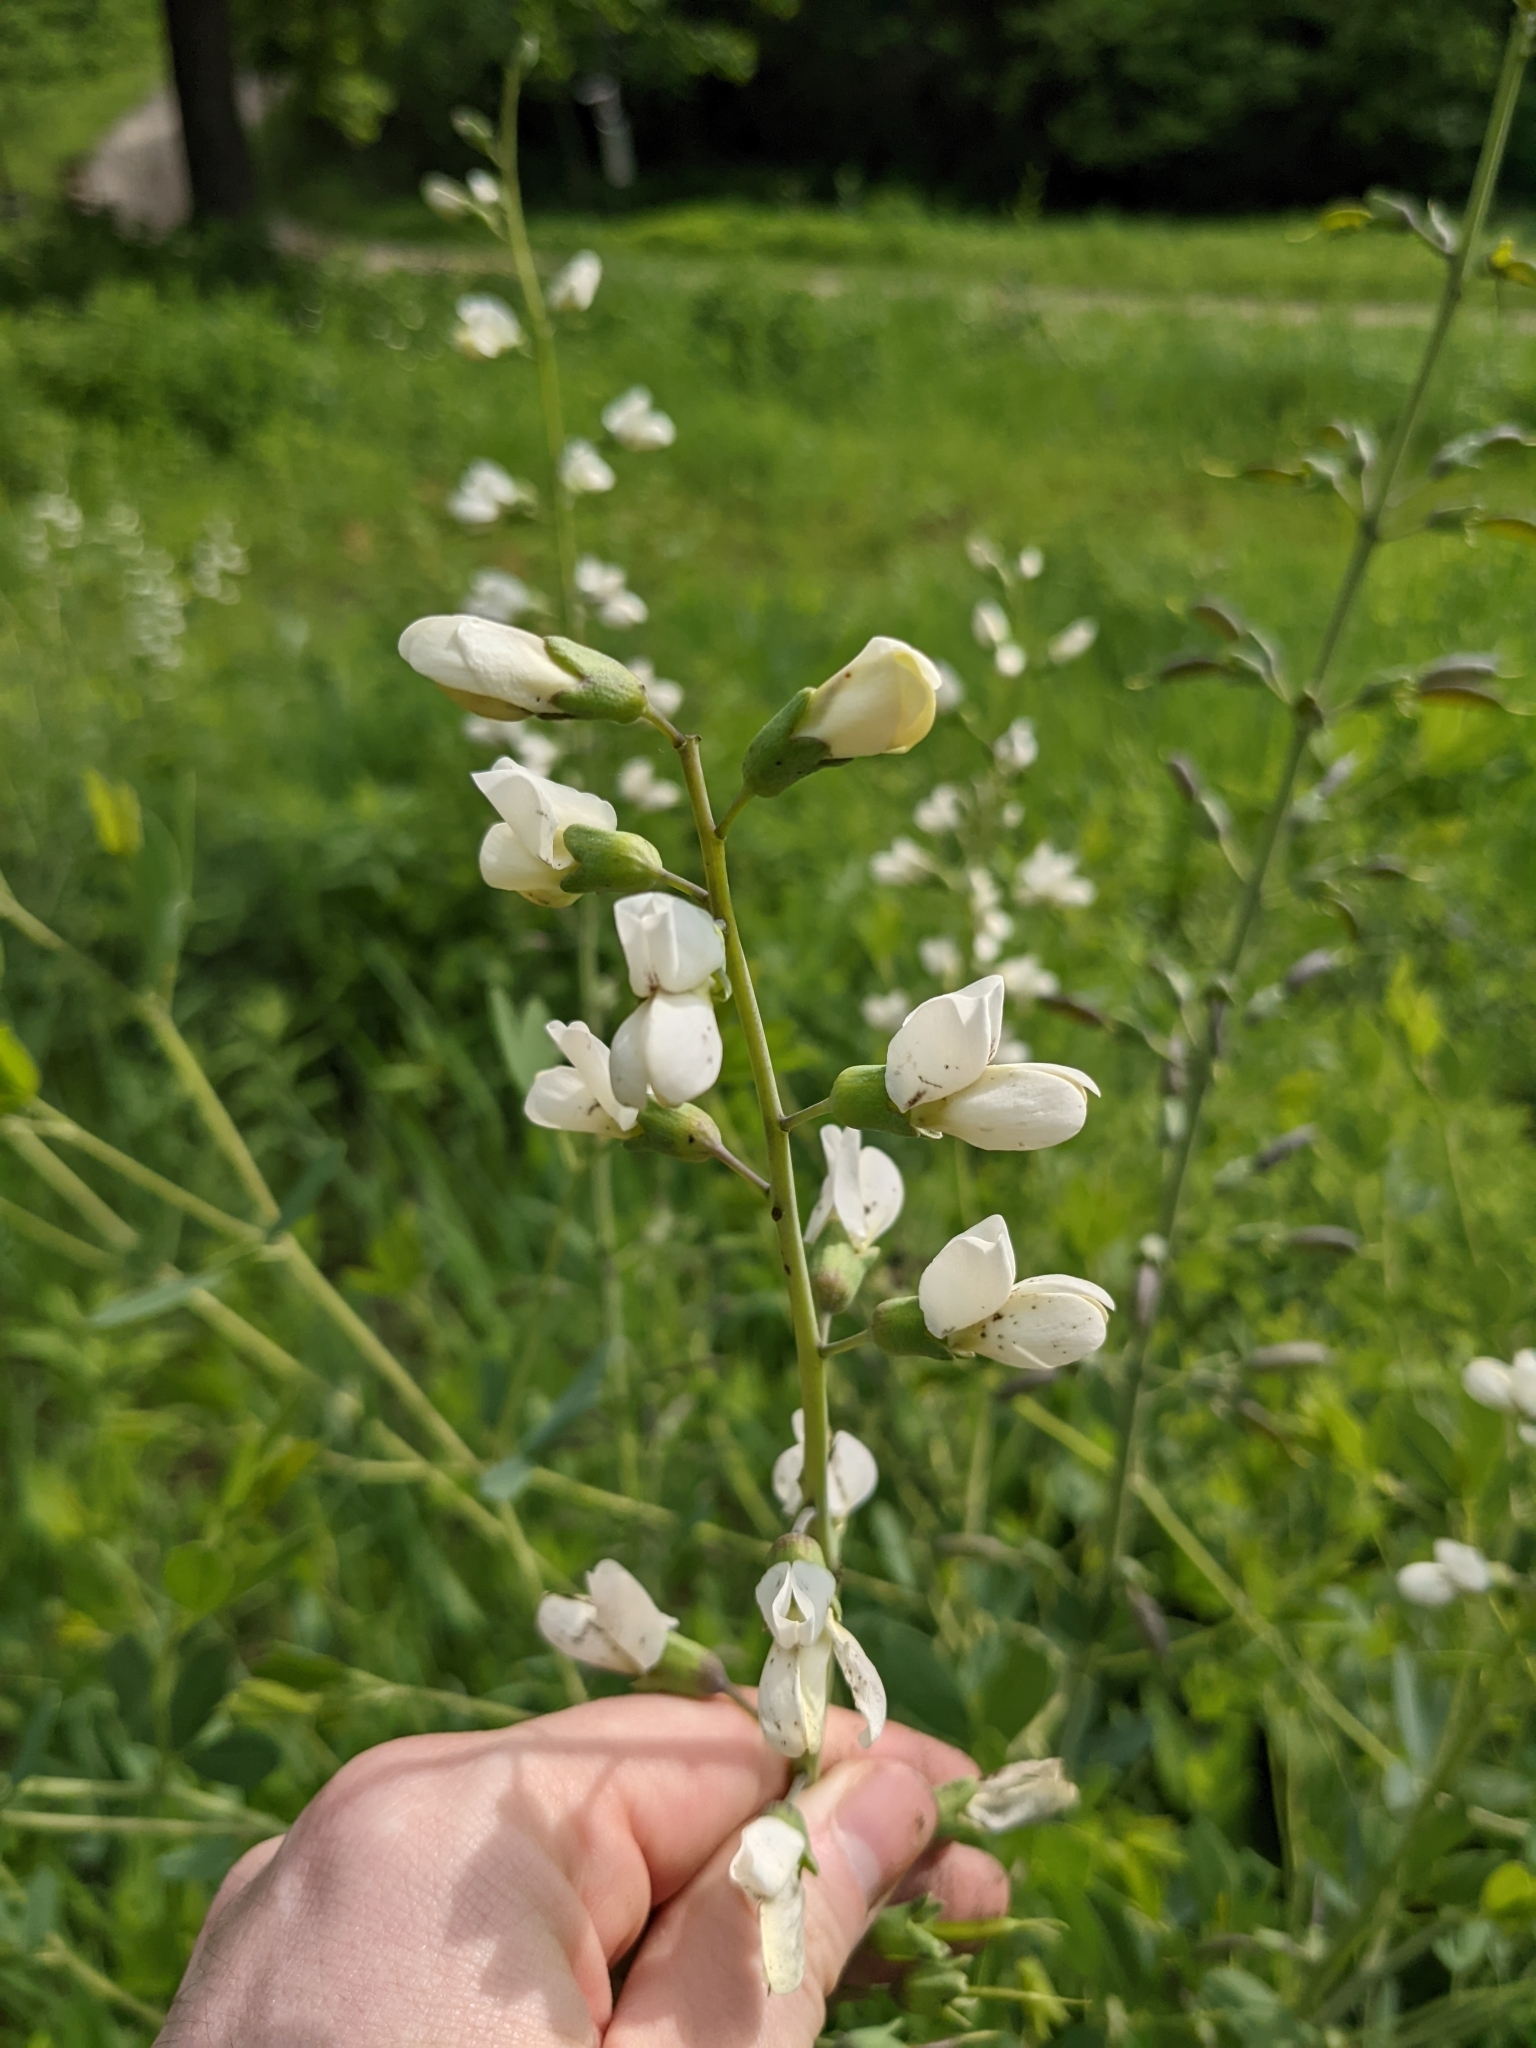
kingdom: Plantae
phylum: Tracheophyta
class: Magnoliopsida
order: Fabales
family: Fabaceae
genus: Baptisia
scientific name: Baptisia alba
